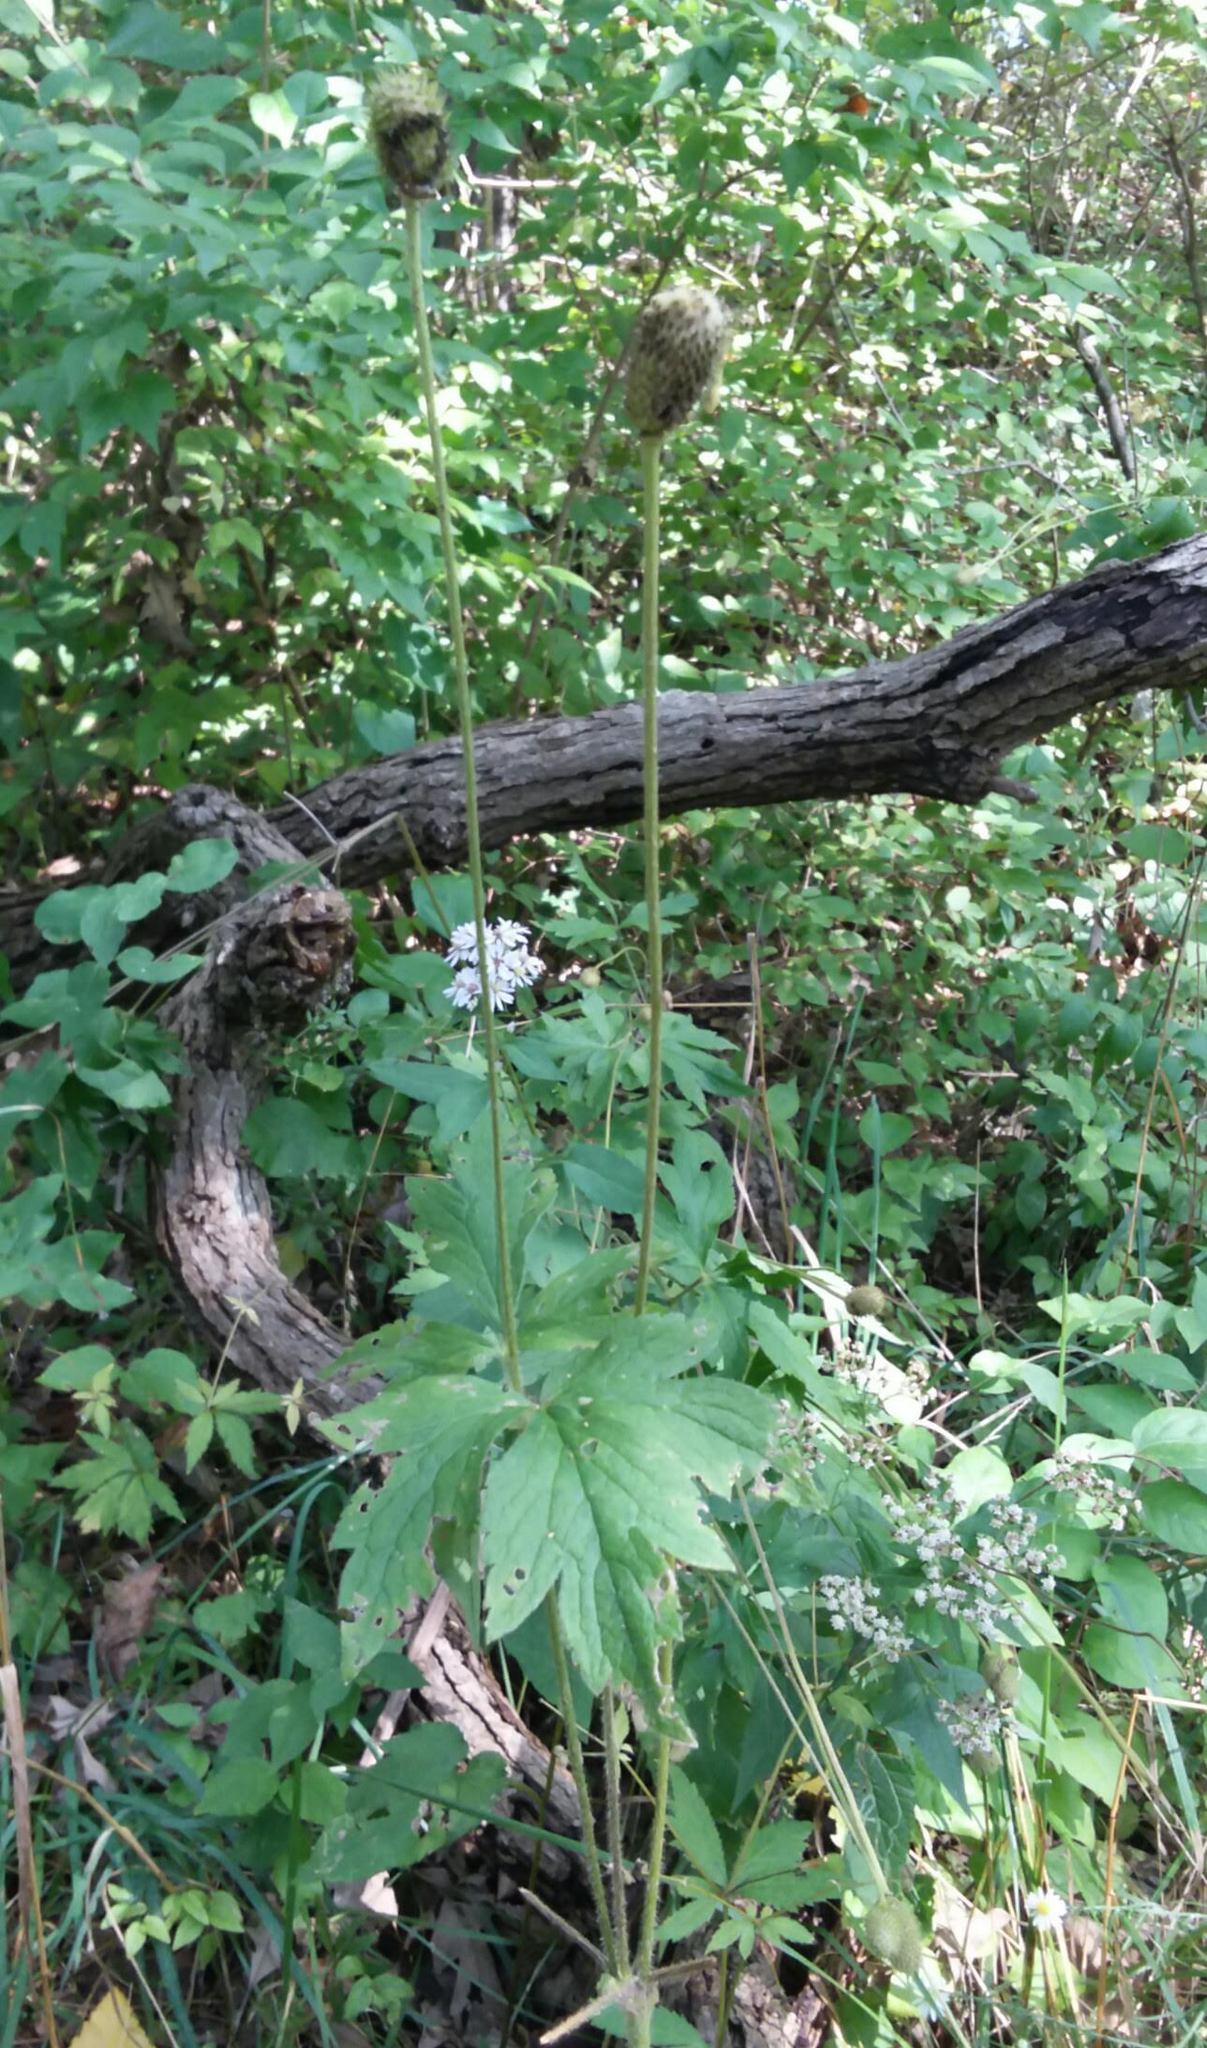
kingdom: Plantae
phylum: Tracheophyta
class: Magnoliopsida
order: Ranunculales
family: Ranunculaceae
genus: Anemone
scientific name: Anemone virginiana
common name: Tall anemone
